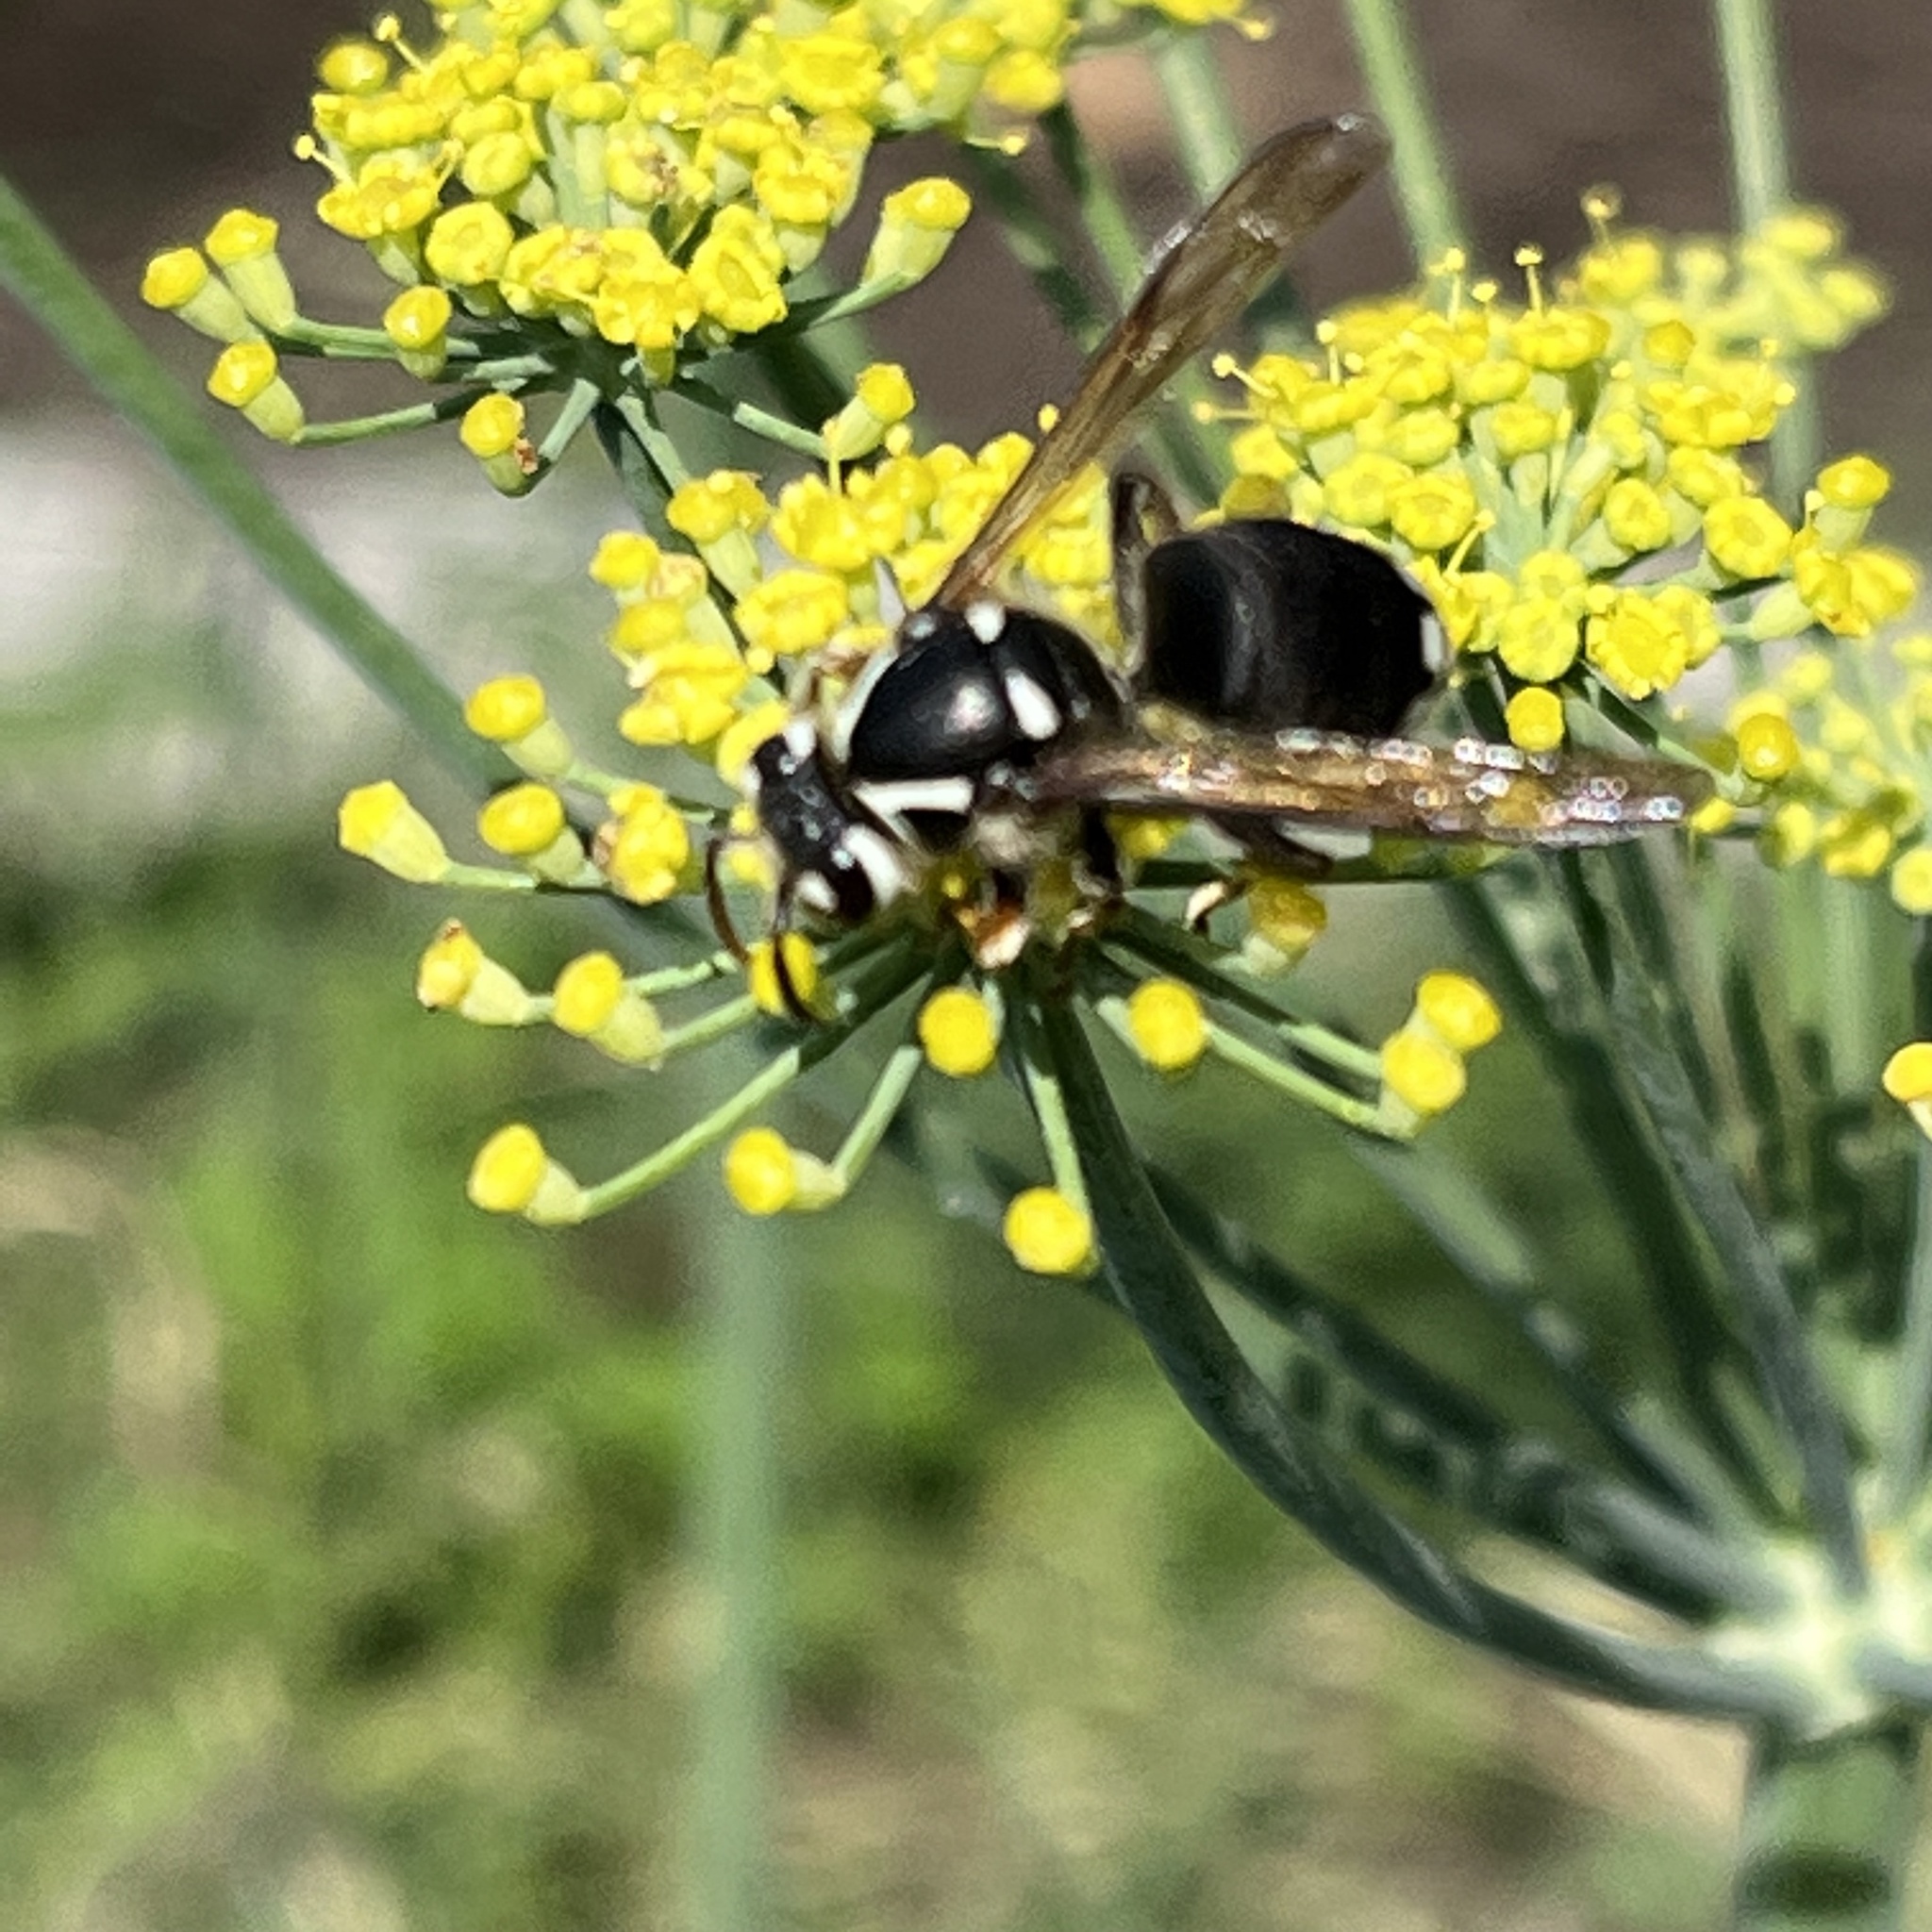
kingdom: Animalia
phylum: Arthropoda
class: Insecta
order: Hymenoptera
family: Vespidae
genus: Dolichovespula
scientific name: Dolichovespula maculata
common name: Bald-faced hornet
